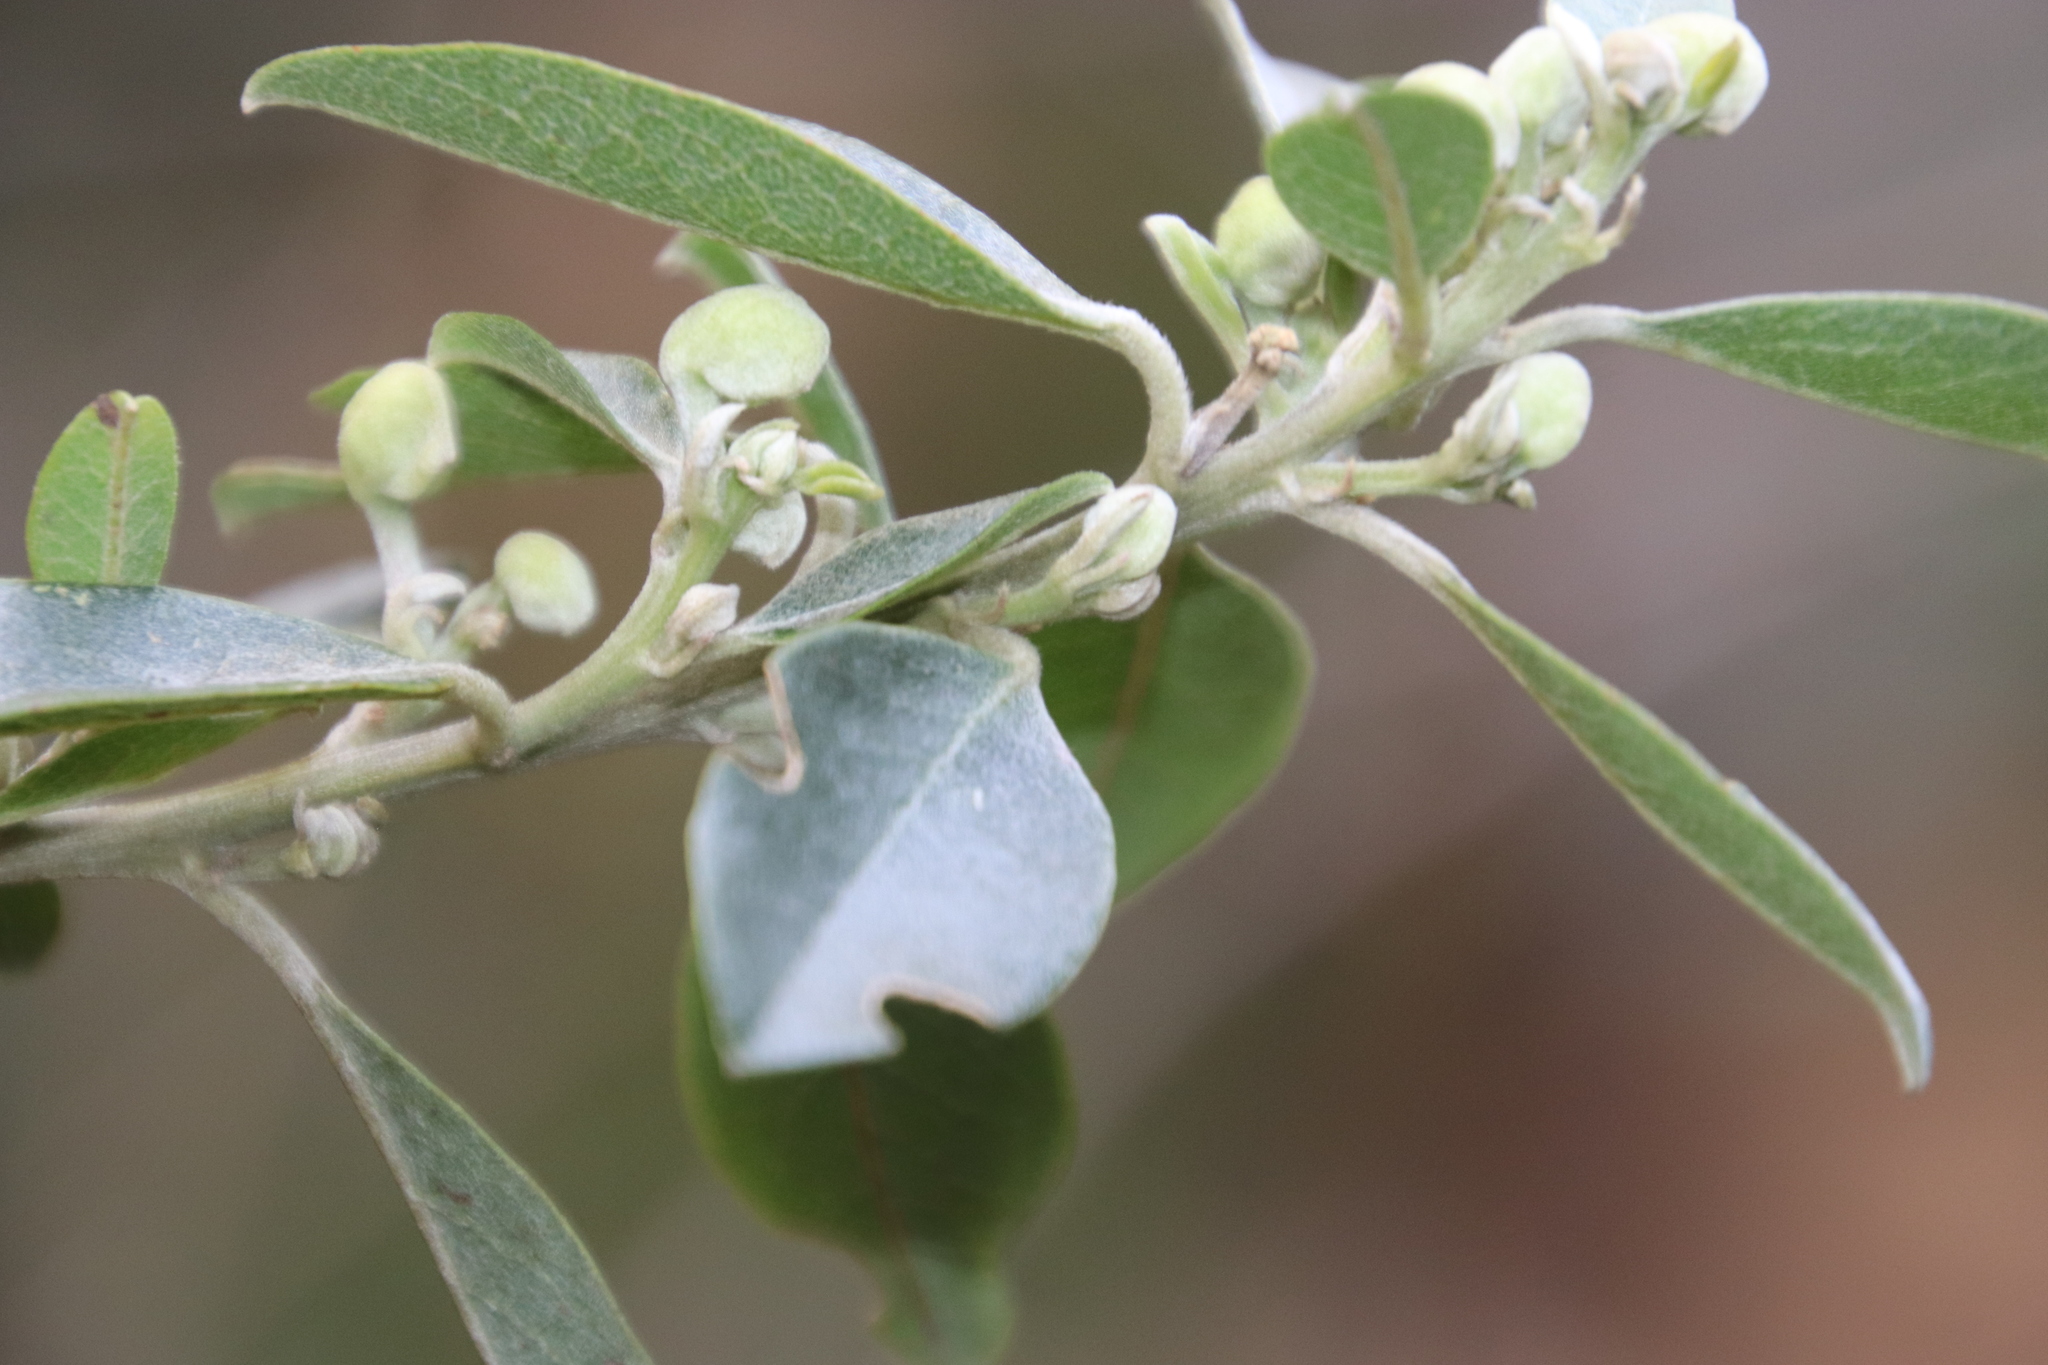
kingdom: Plantae
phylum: Tracheophyta
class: Magnoliopsida
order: Fabales
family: Fabaceae
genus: Podalyria
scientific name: Podalyria calyptrata
